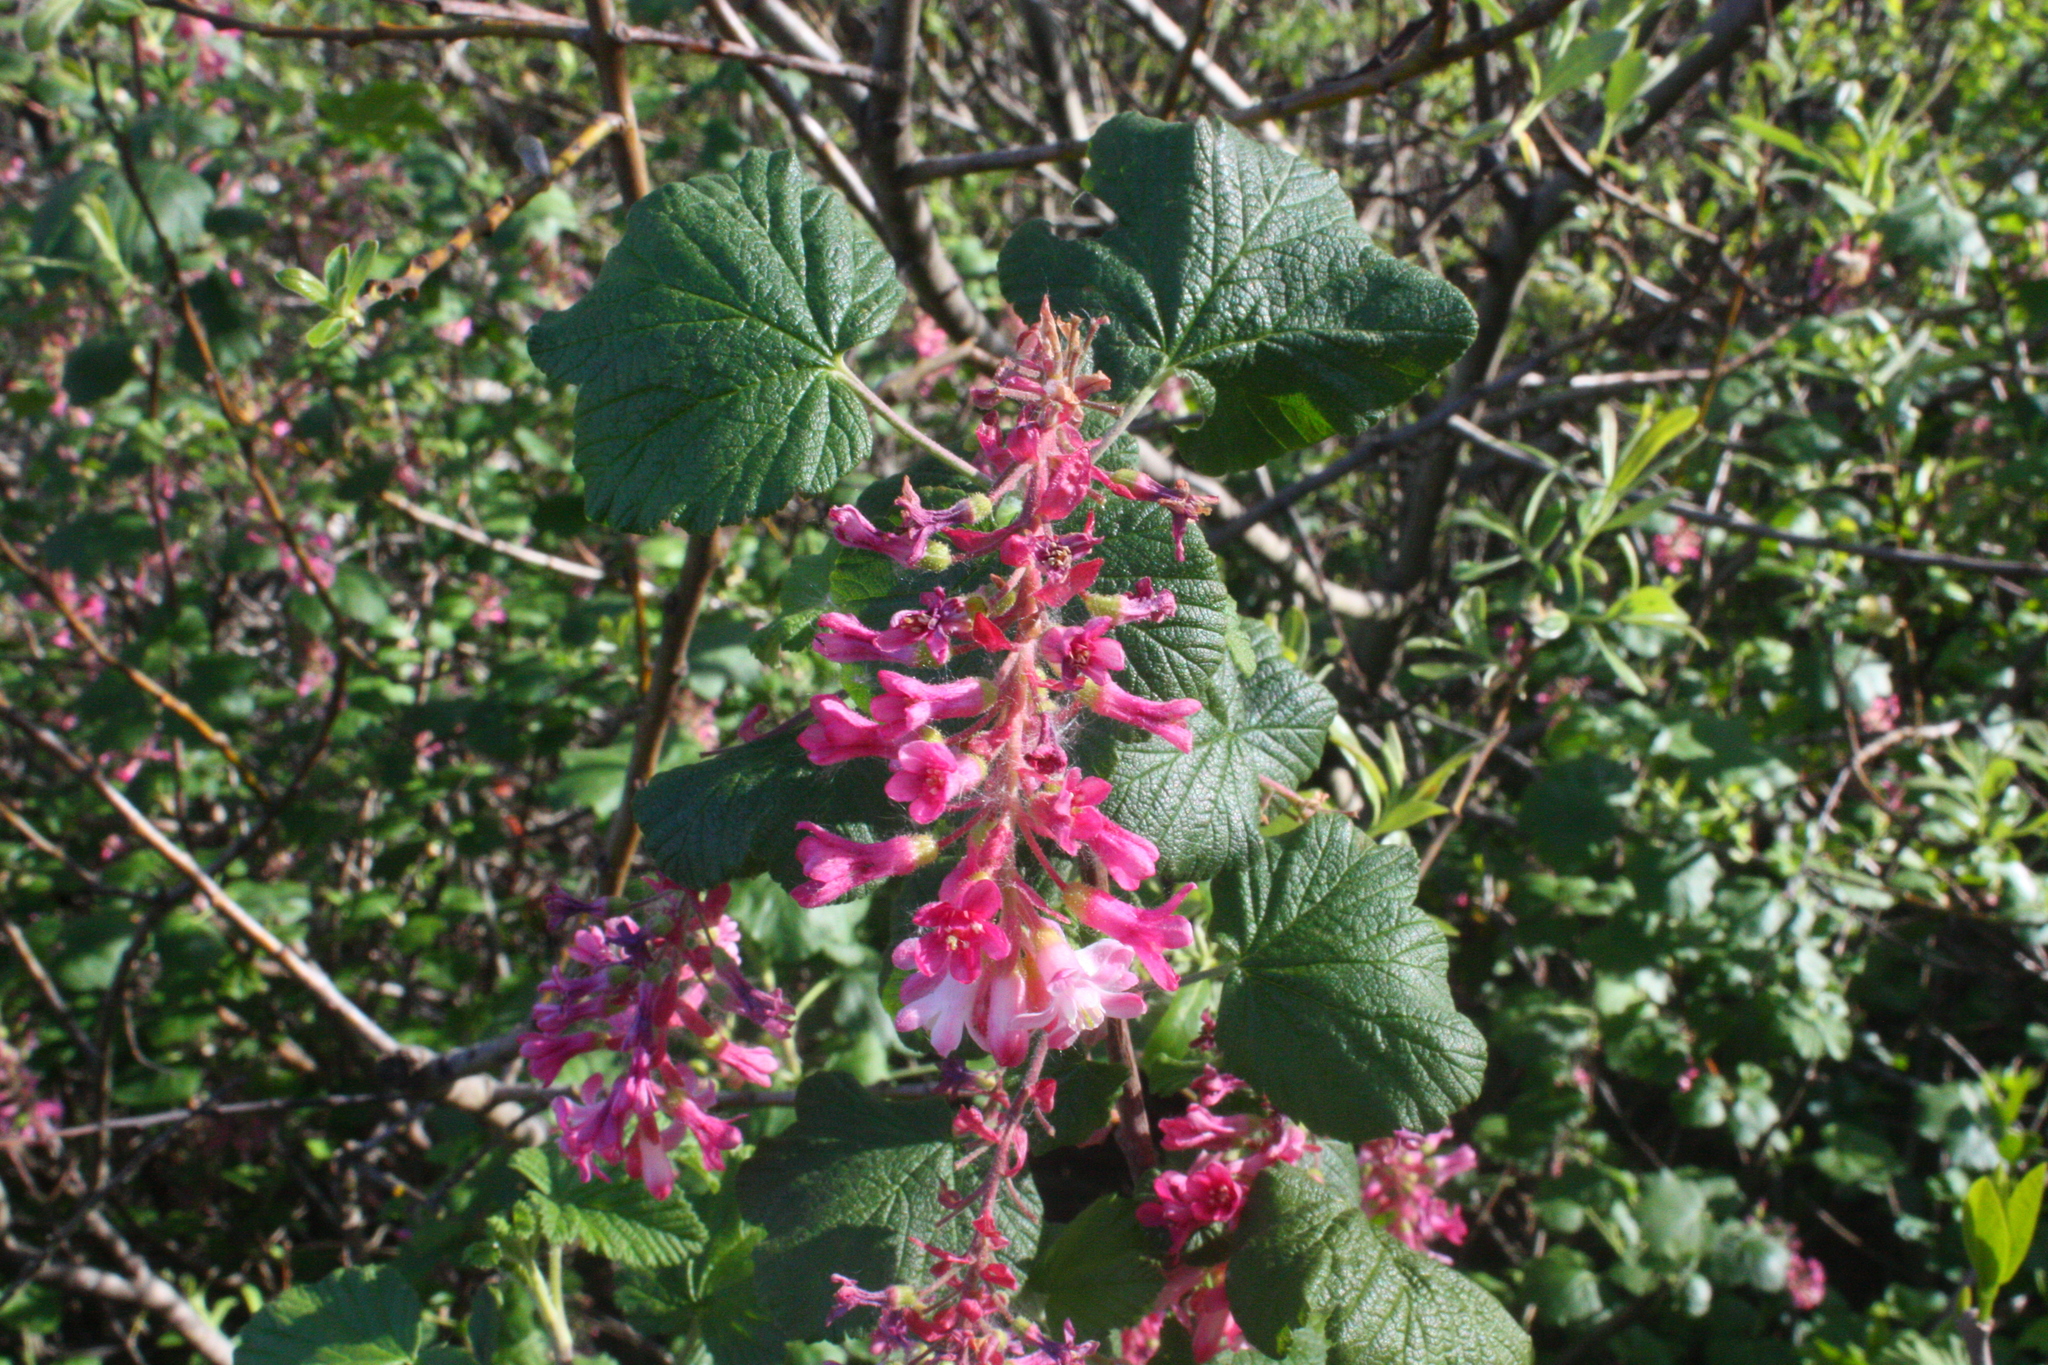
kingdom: Plantae
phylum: Tracheophyta
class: Magnoliopsida
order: Saxifragales
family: Grossulariaceae
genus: Ribes
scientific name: Ribes sanguineum
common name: Flowering currant
